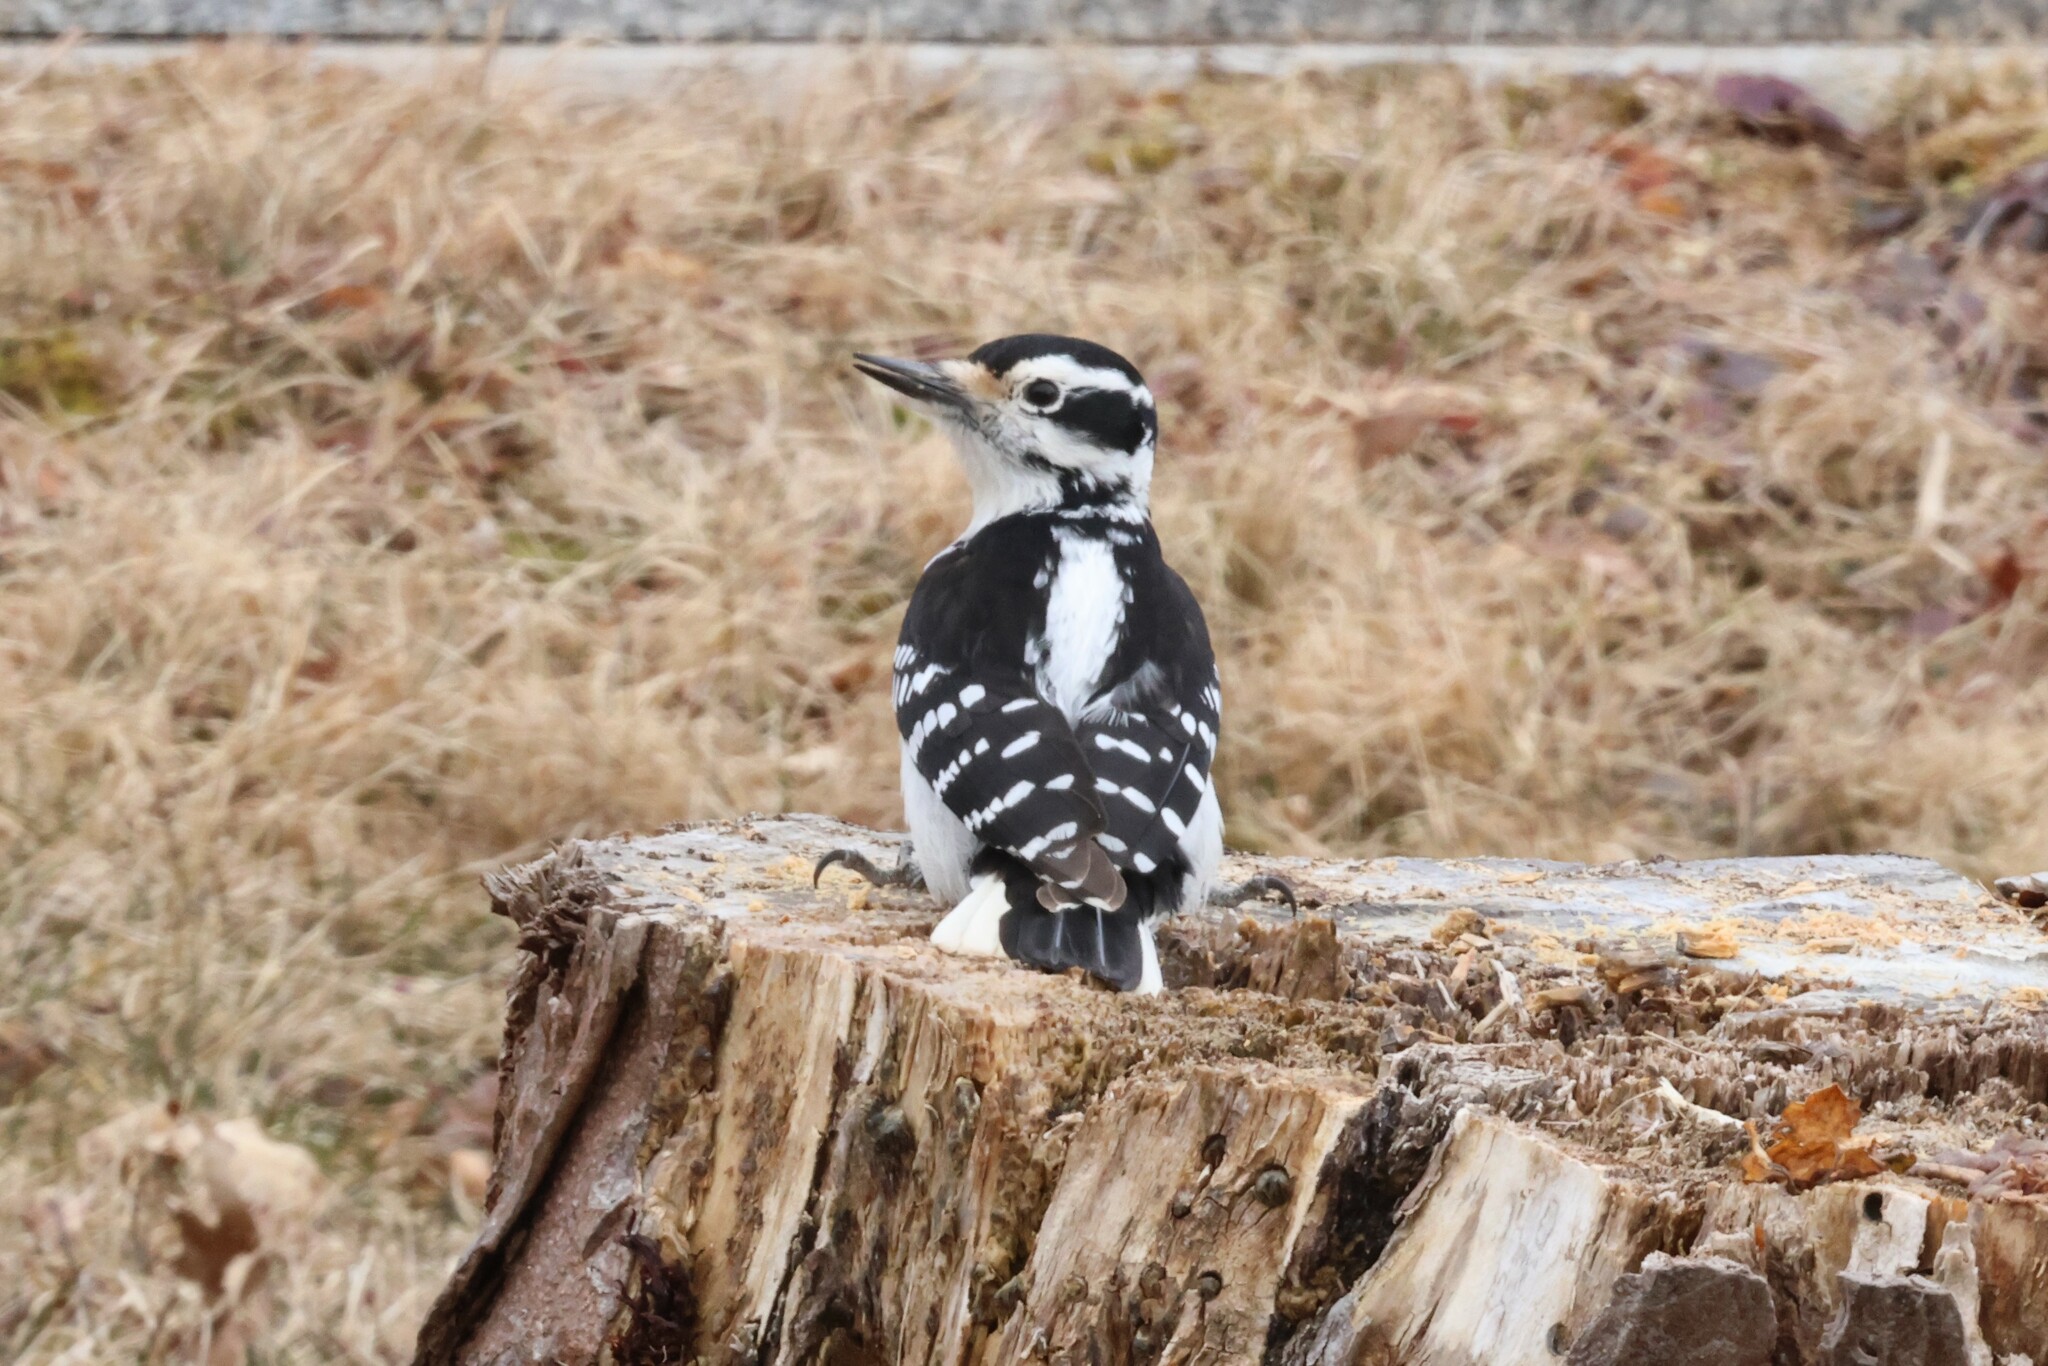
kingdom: Animalia
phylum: Chordata
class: Aves
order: Piciformes
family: Picidae
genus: Leuconotopicus
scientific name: Leuconotopicus villosus
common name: Hairy woodpecker
